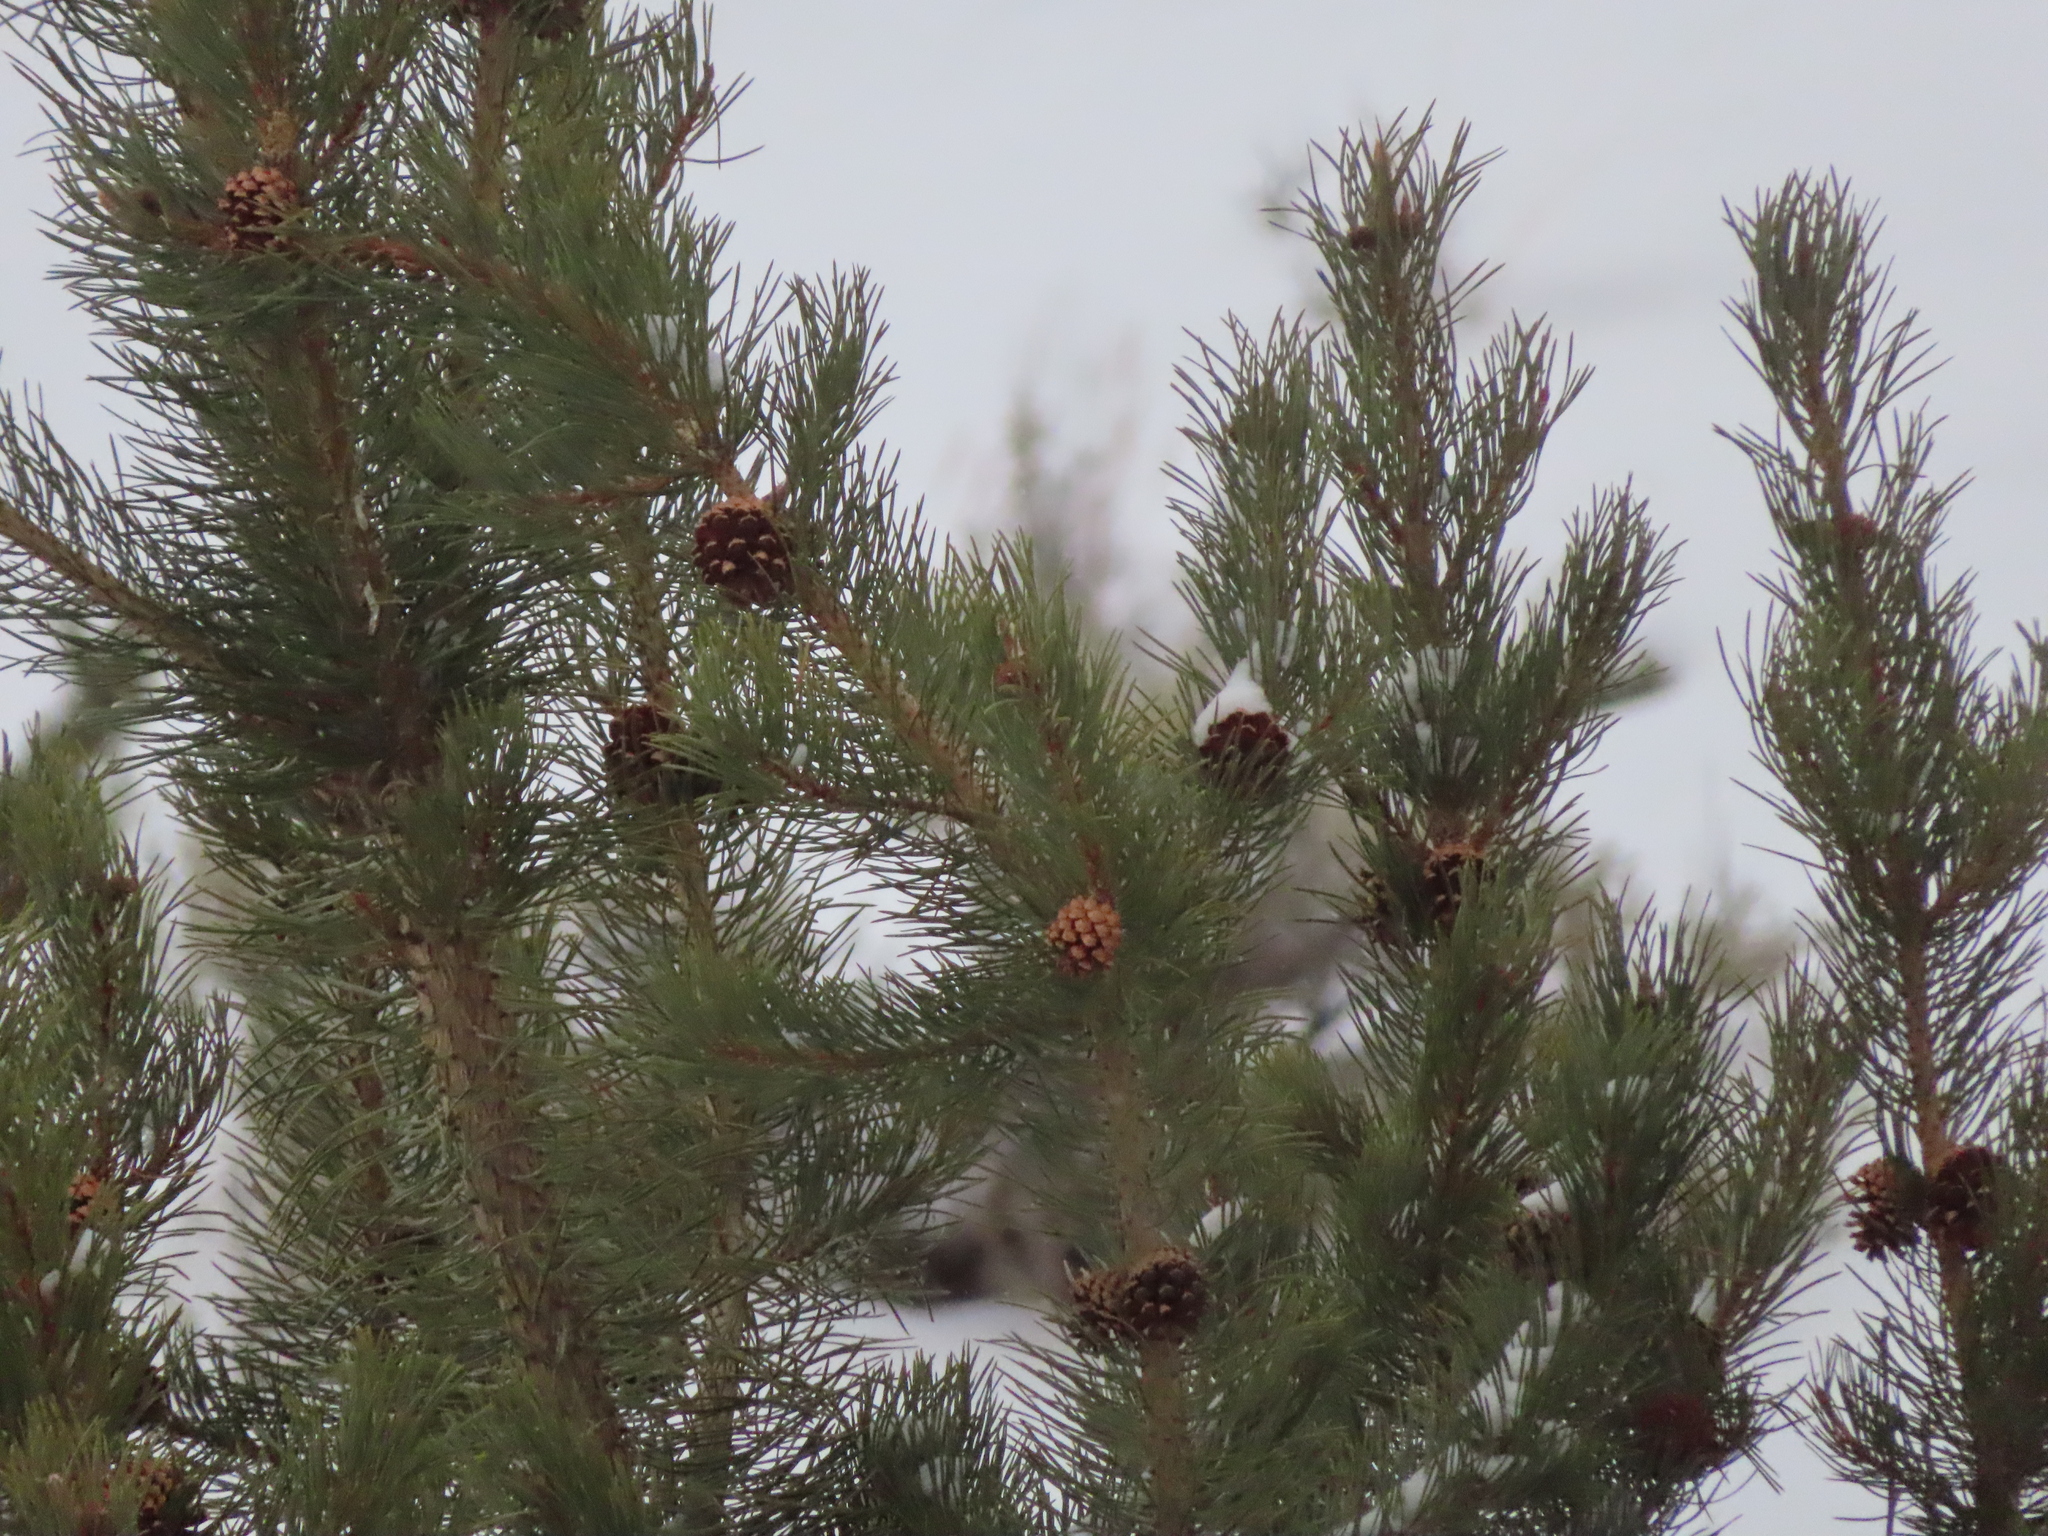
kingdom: Plantae
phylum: Tracheophyta
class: Pinopsida
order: Pinales
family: Pinaceae
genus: Pinus
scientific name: Pinus contorta
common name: Lodgepole pine
